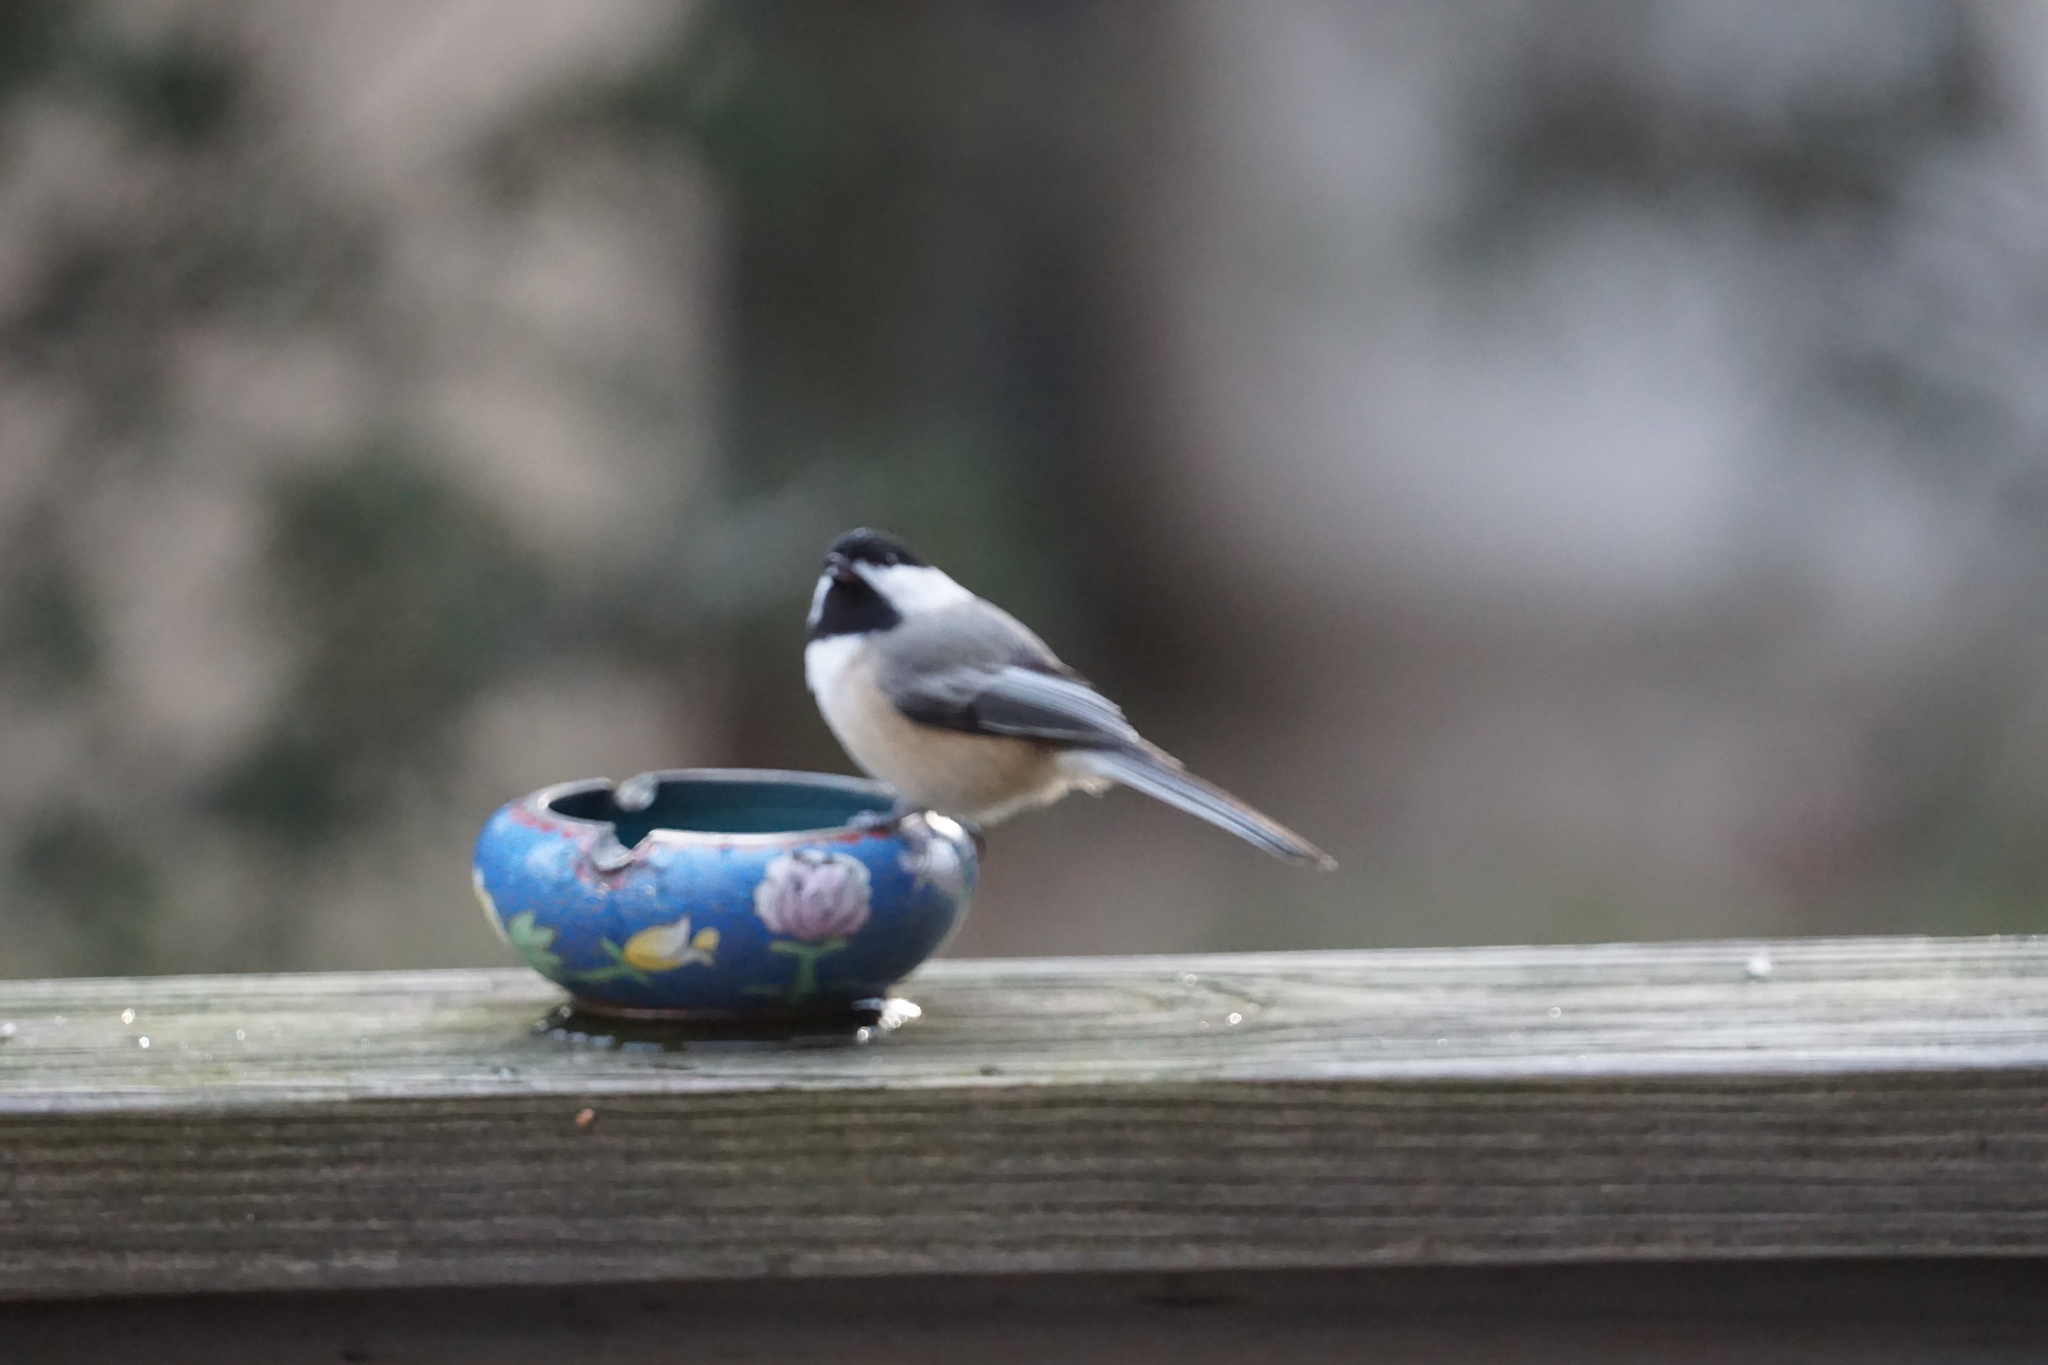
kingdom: Animalia
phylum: Chordata
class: Aves
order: Passeriformes
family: Paridae
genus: Poecile
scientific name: Poecile atricapillus
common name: Black-capped chickadee
